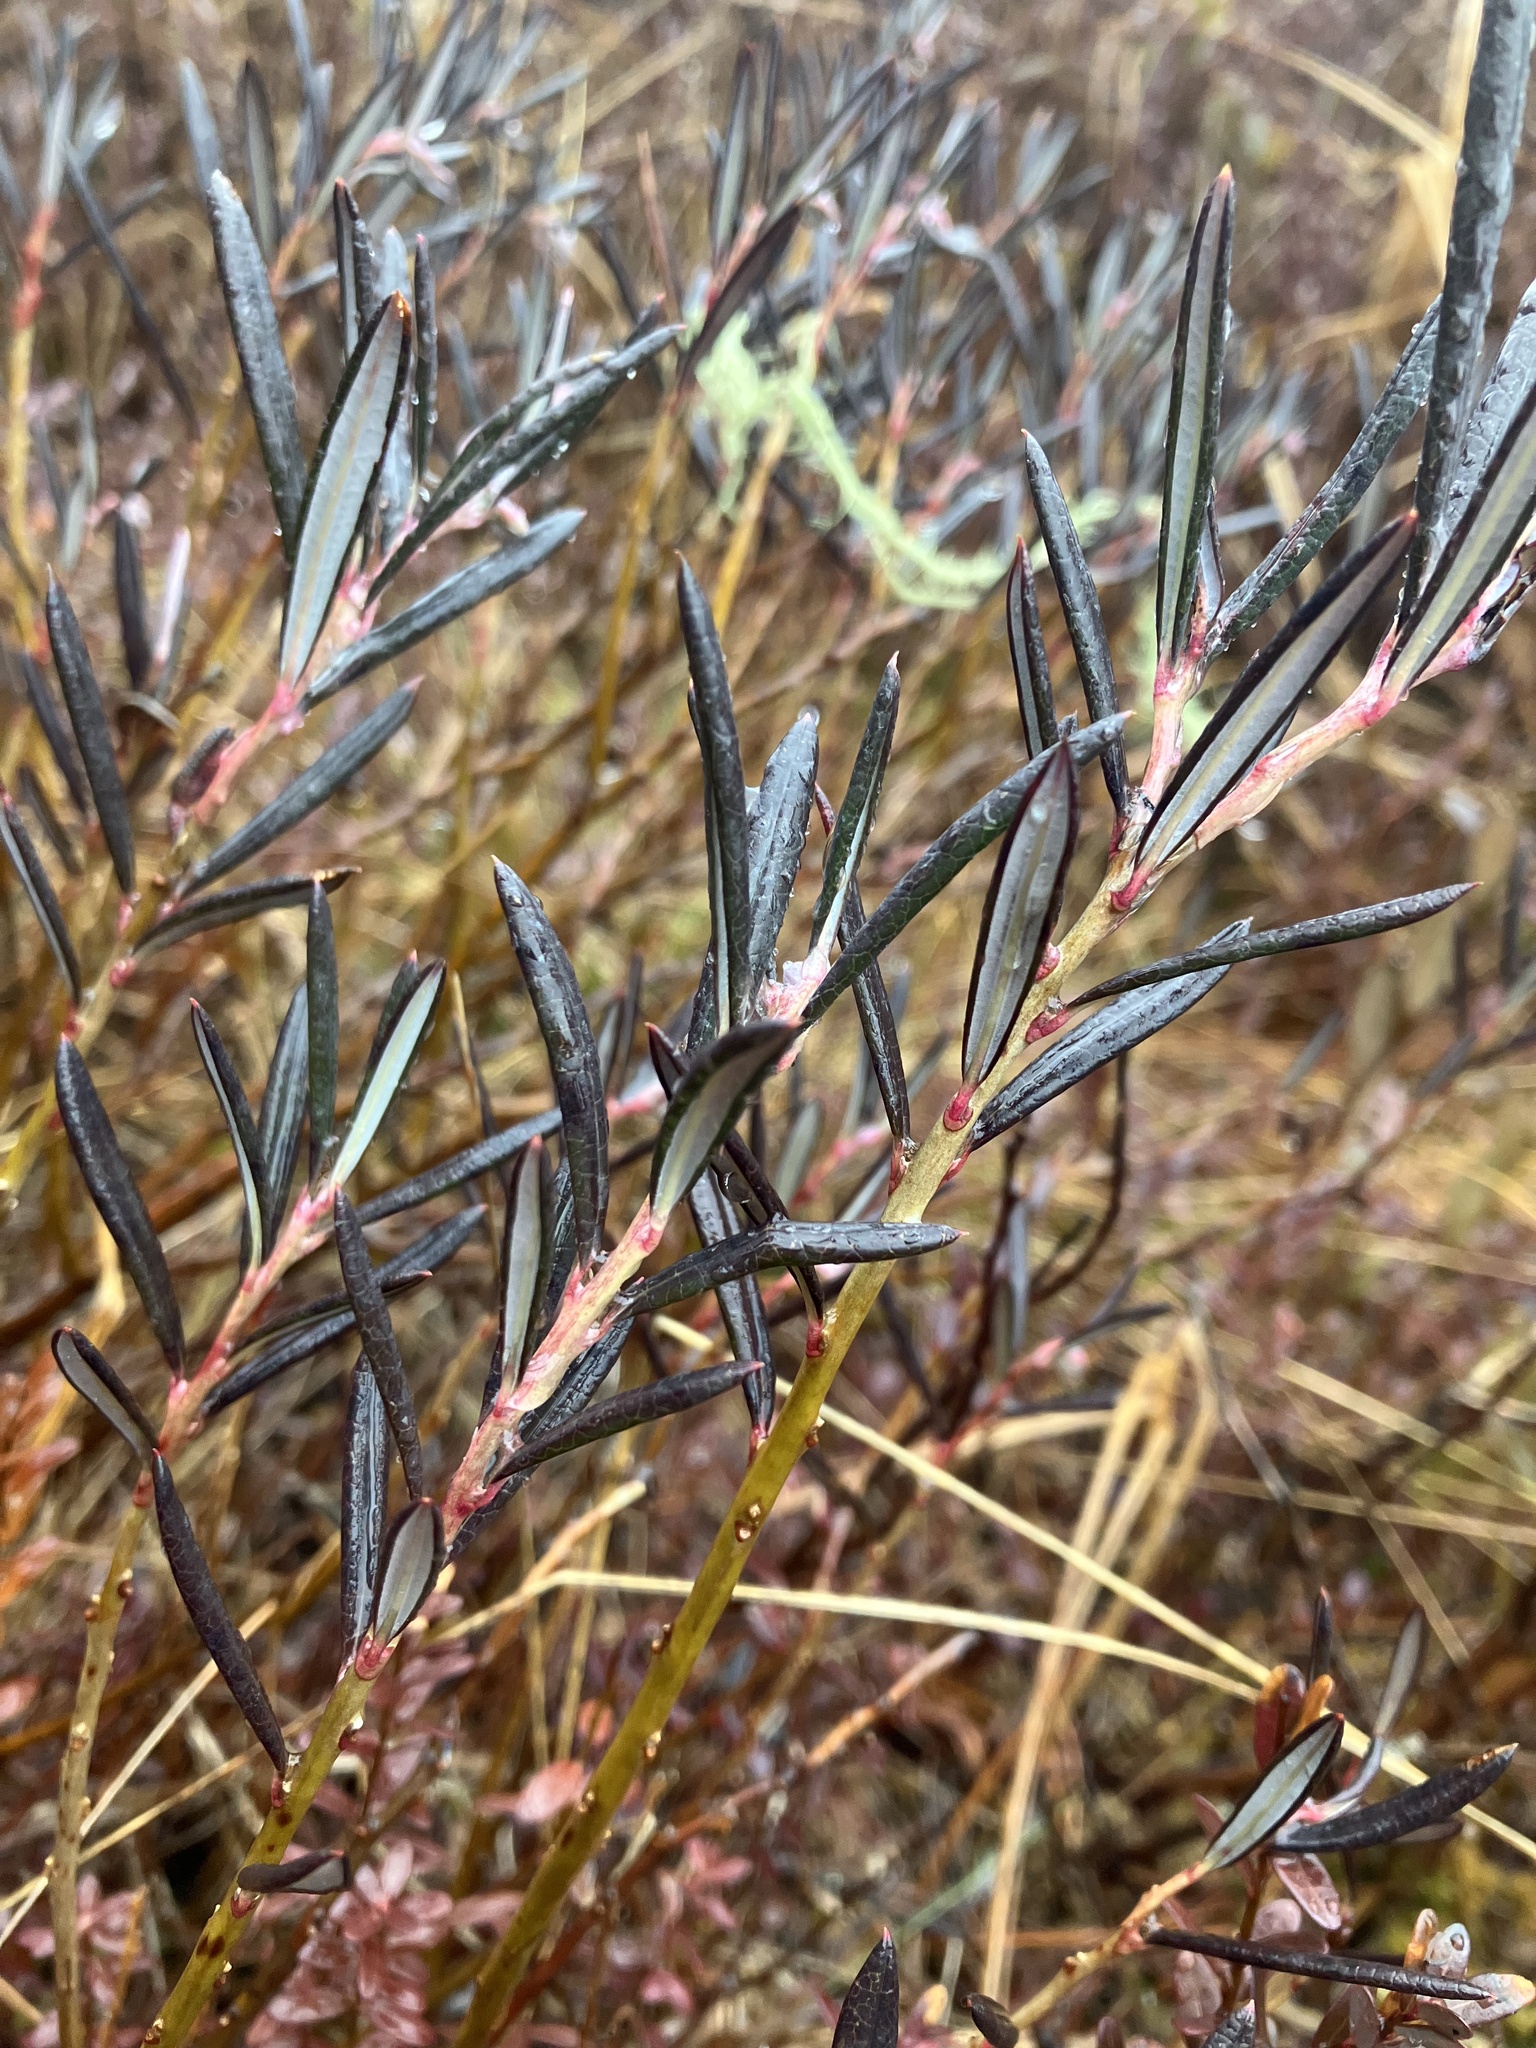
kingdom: Plantae
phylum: Tracheophyta
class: Magnoliopsida
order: Ericales
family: Ericaceae
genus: Andromeda
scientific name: Andromeda polifolia
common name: Bog-rosemary
